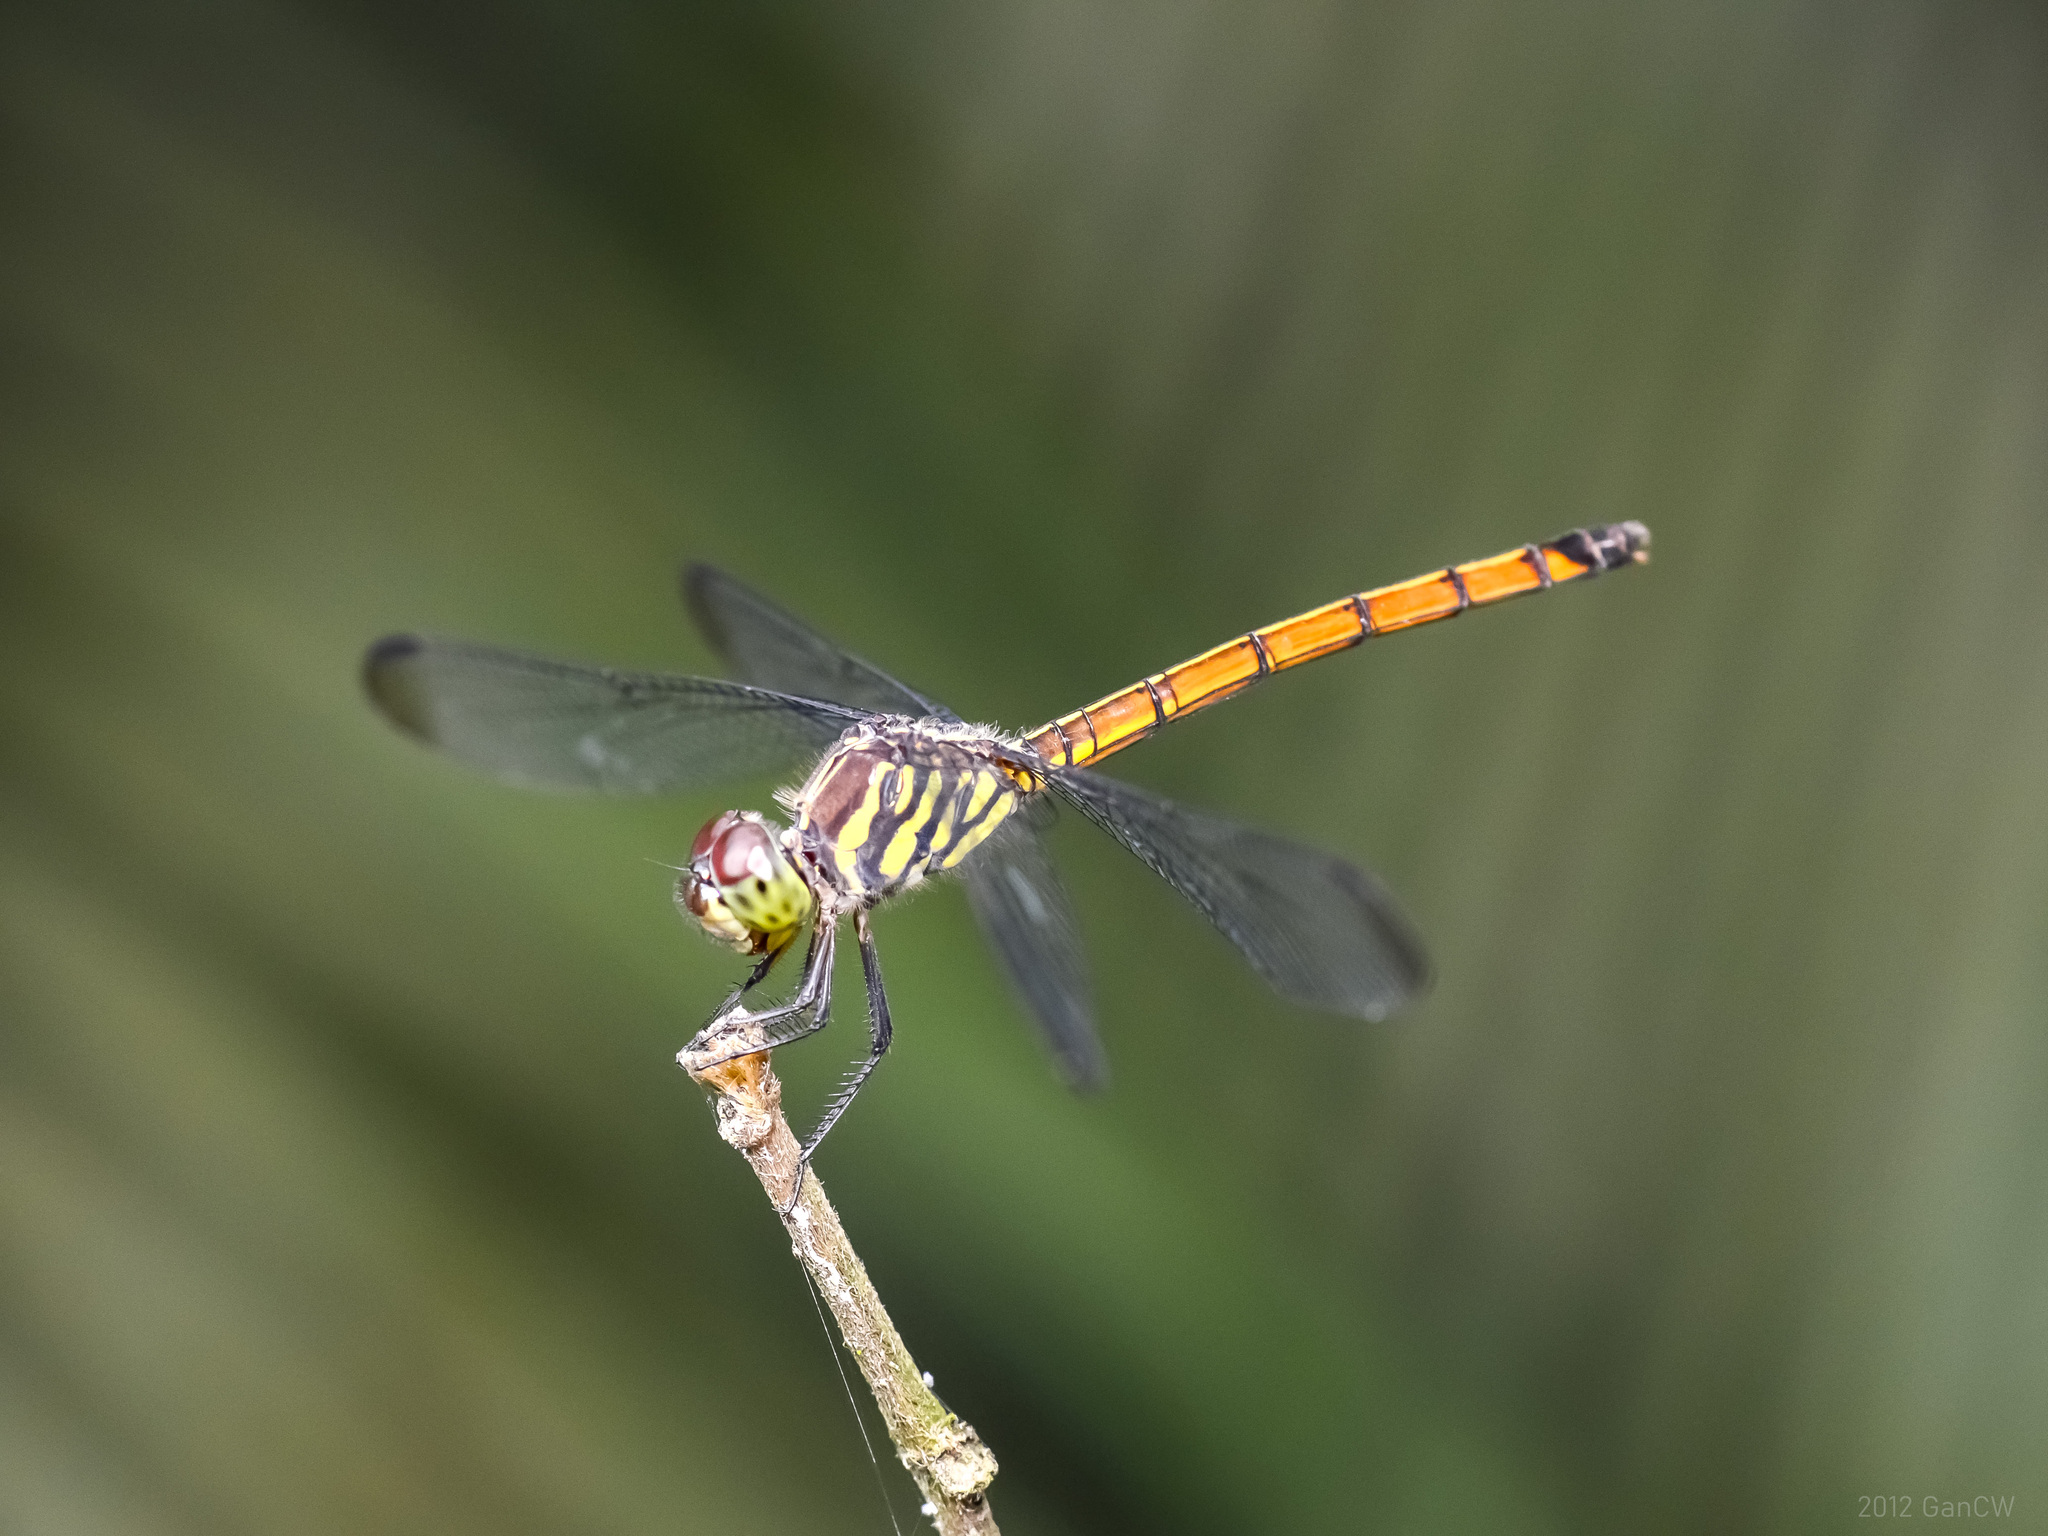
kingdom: Animalia
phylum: Arthropoda
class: Insecta
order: Odonata
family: Libellulidae
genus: Lathrecista
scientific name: Lathrecista asiatica
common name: Scarlet grenadier
